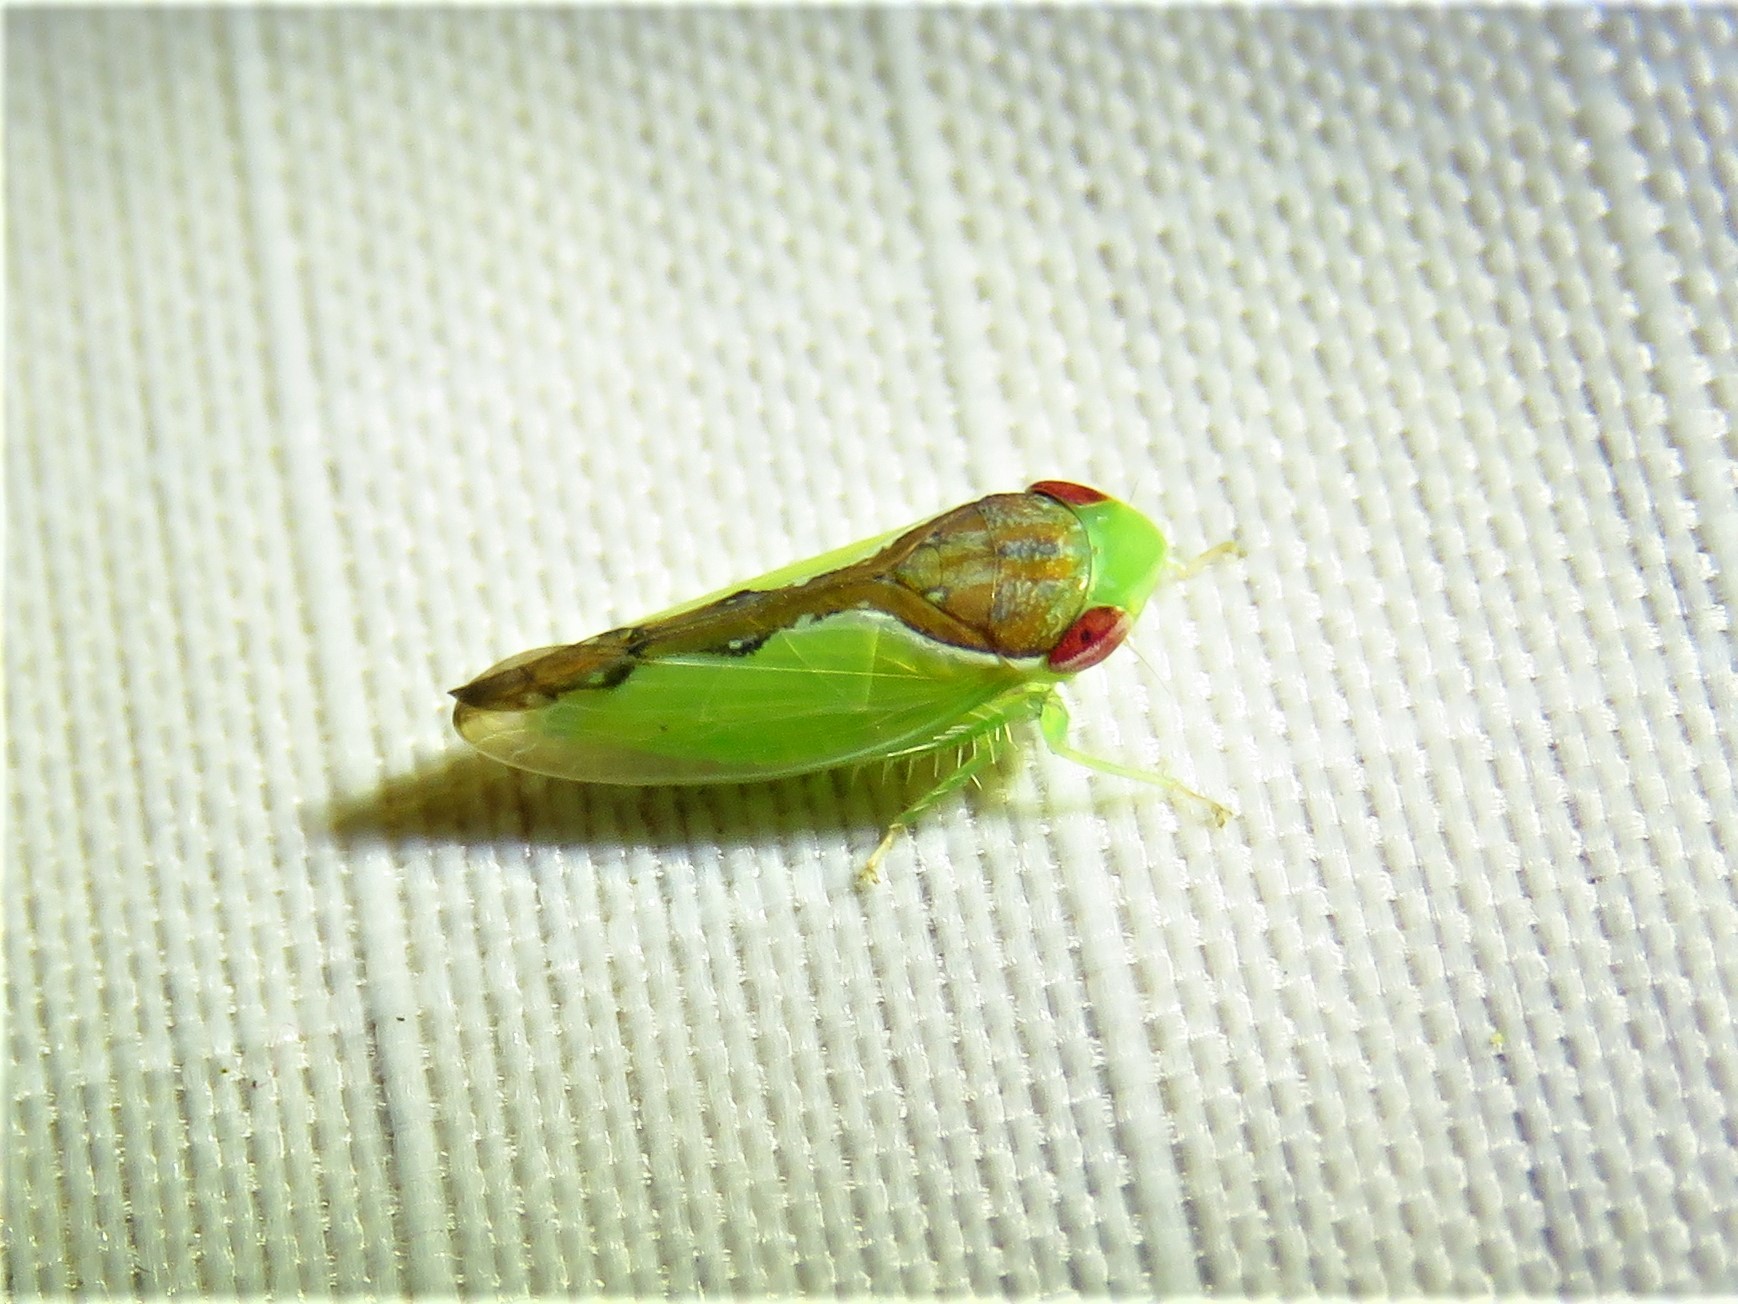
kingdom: Animalia
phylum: Arthropoda
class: Insecta
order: Hemiptera
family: Cicadellidae
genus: Omansobara ing
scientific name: Omansobara ing Omansobara palliolata
